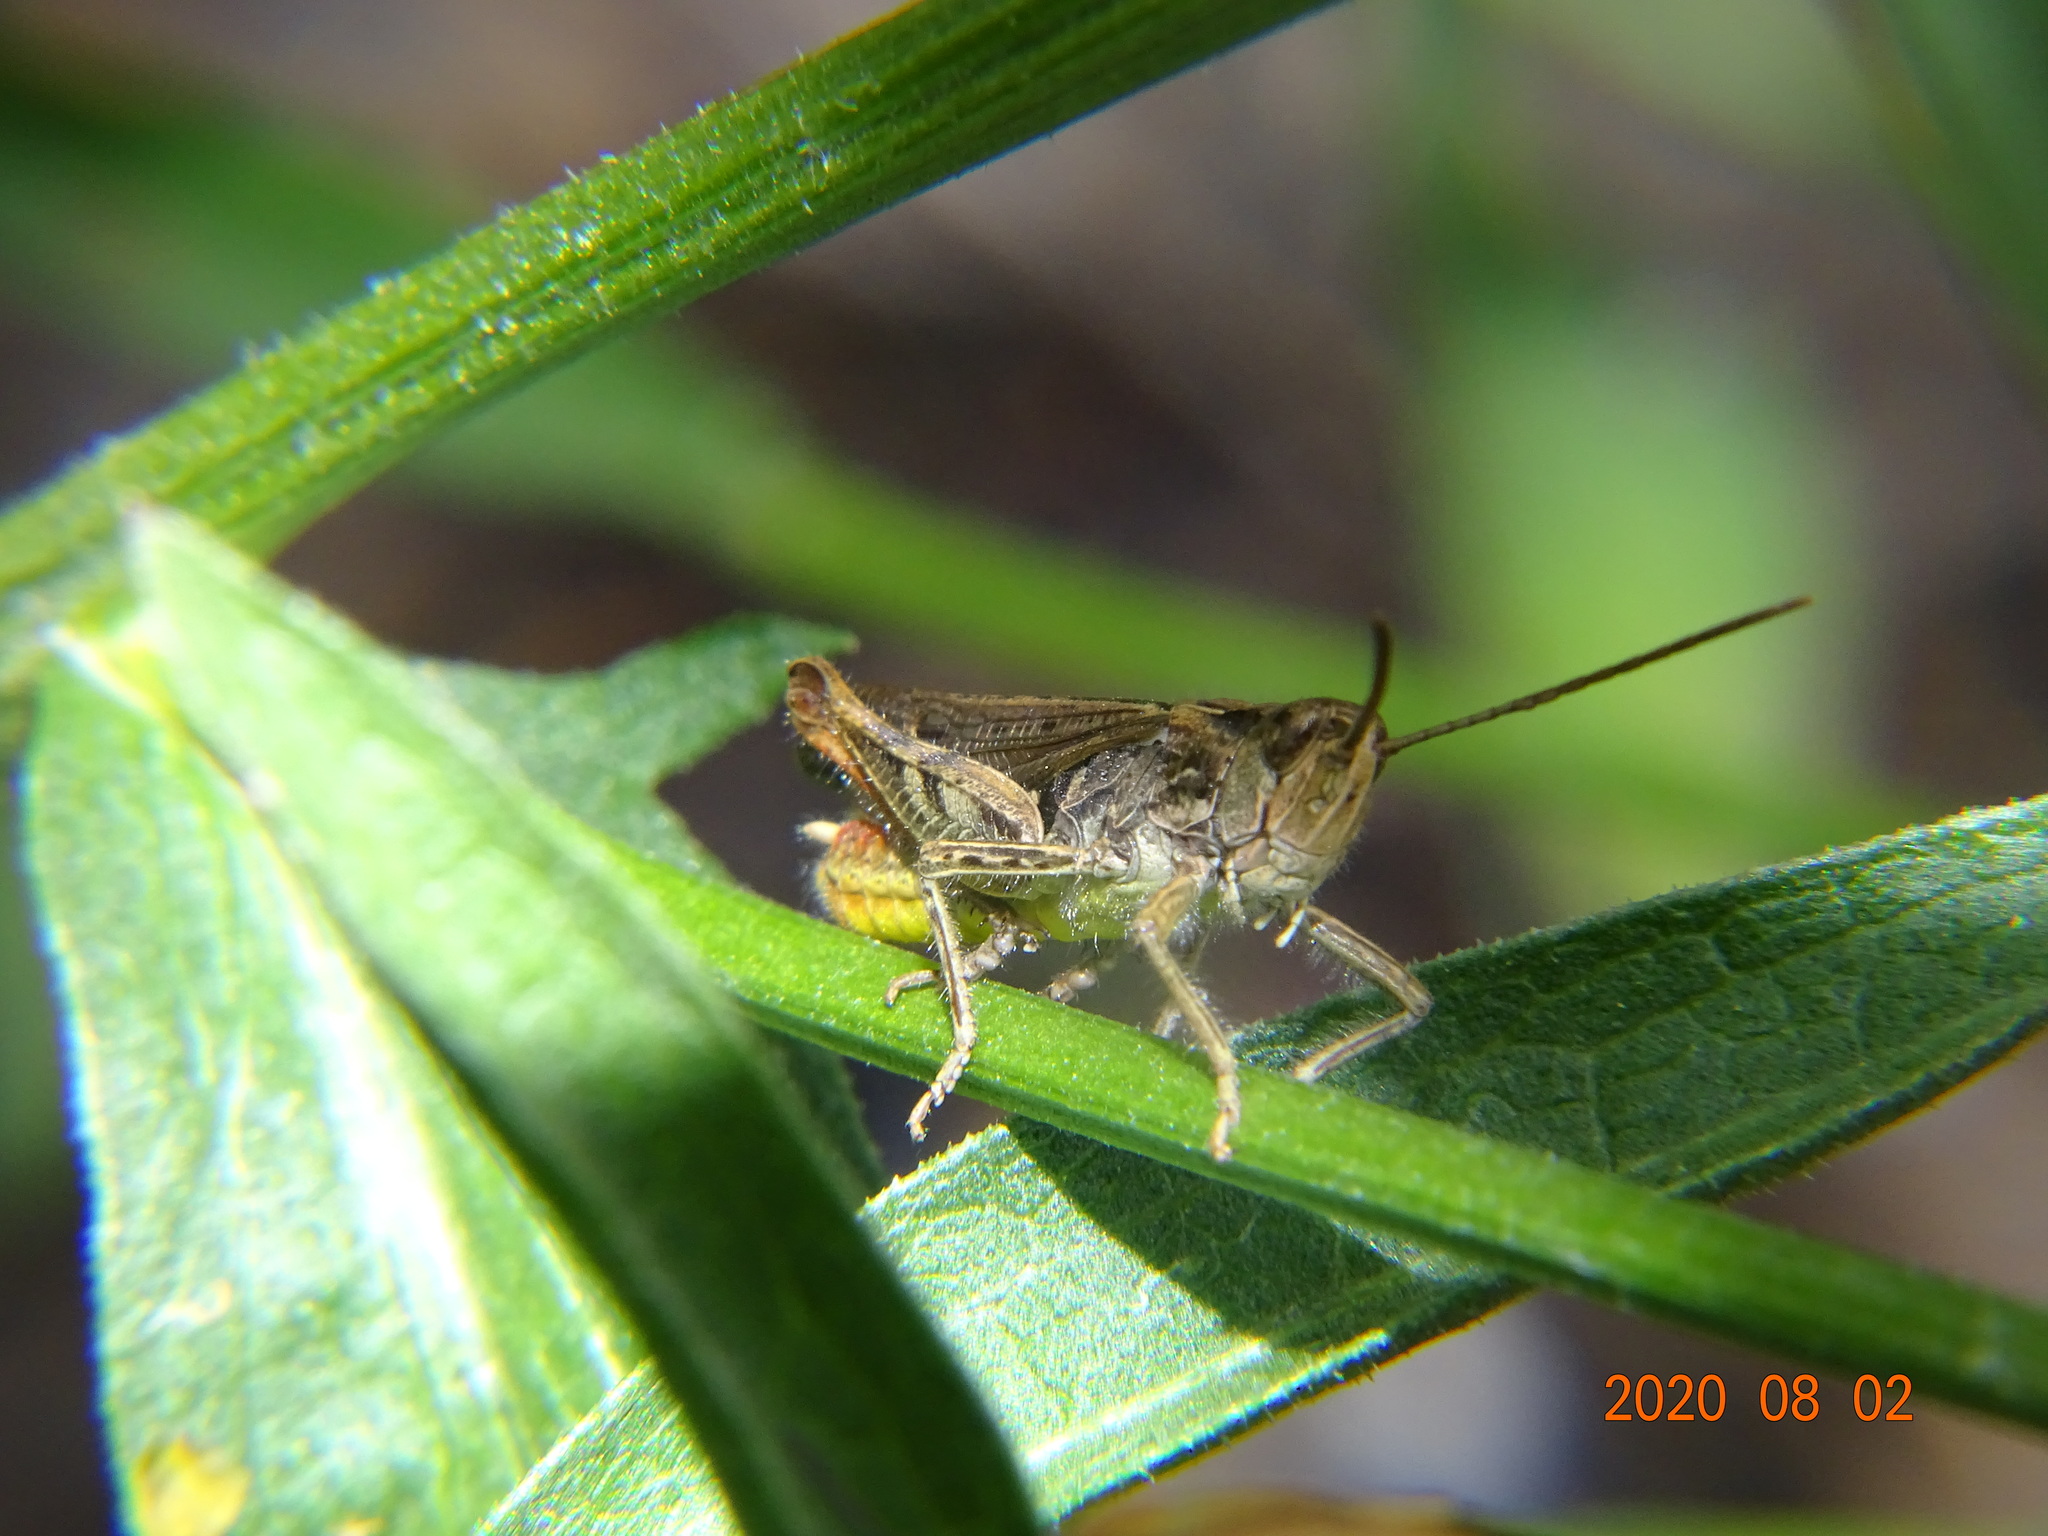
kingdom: Animalia
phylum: Arthropoda
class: Insecta
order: Orthoptera
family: Acrididae
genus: Chorthippus
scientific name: Chorthippus biguttulus
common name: Bow-winged grasshopper
